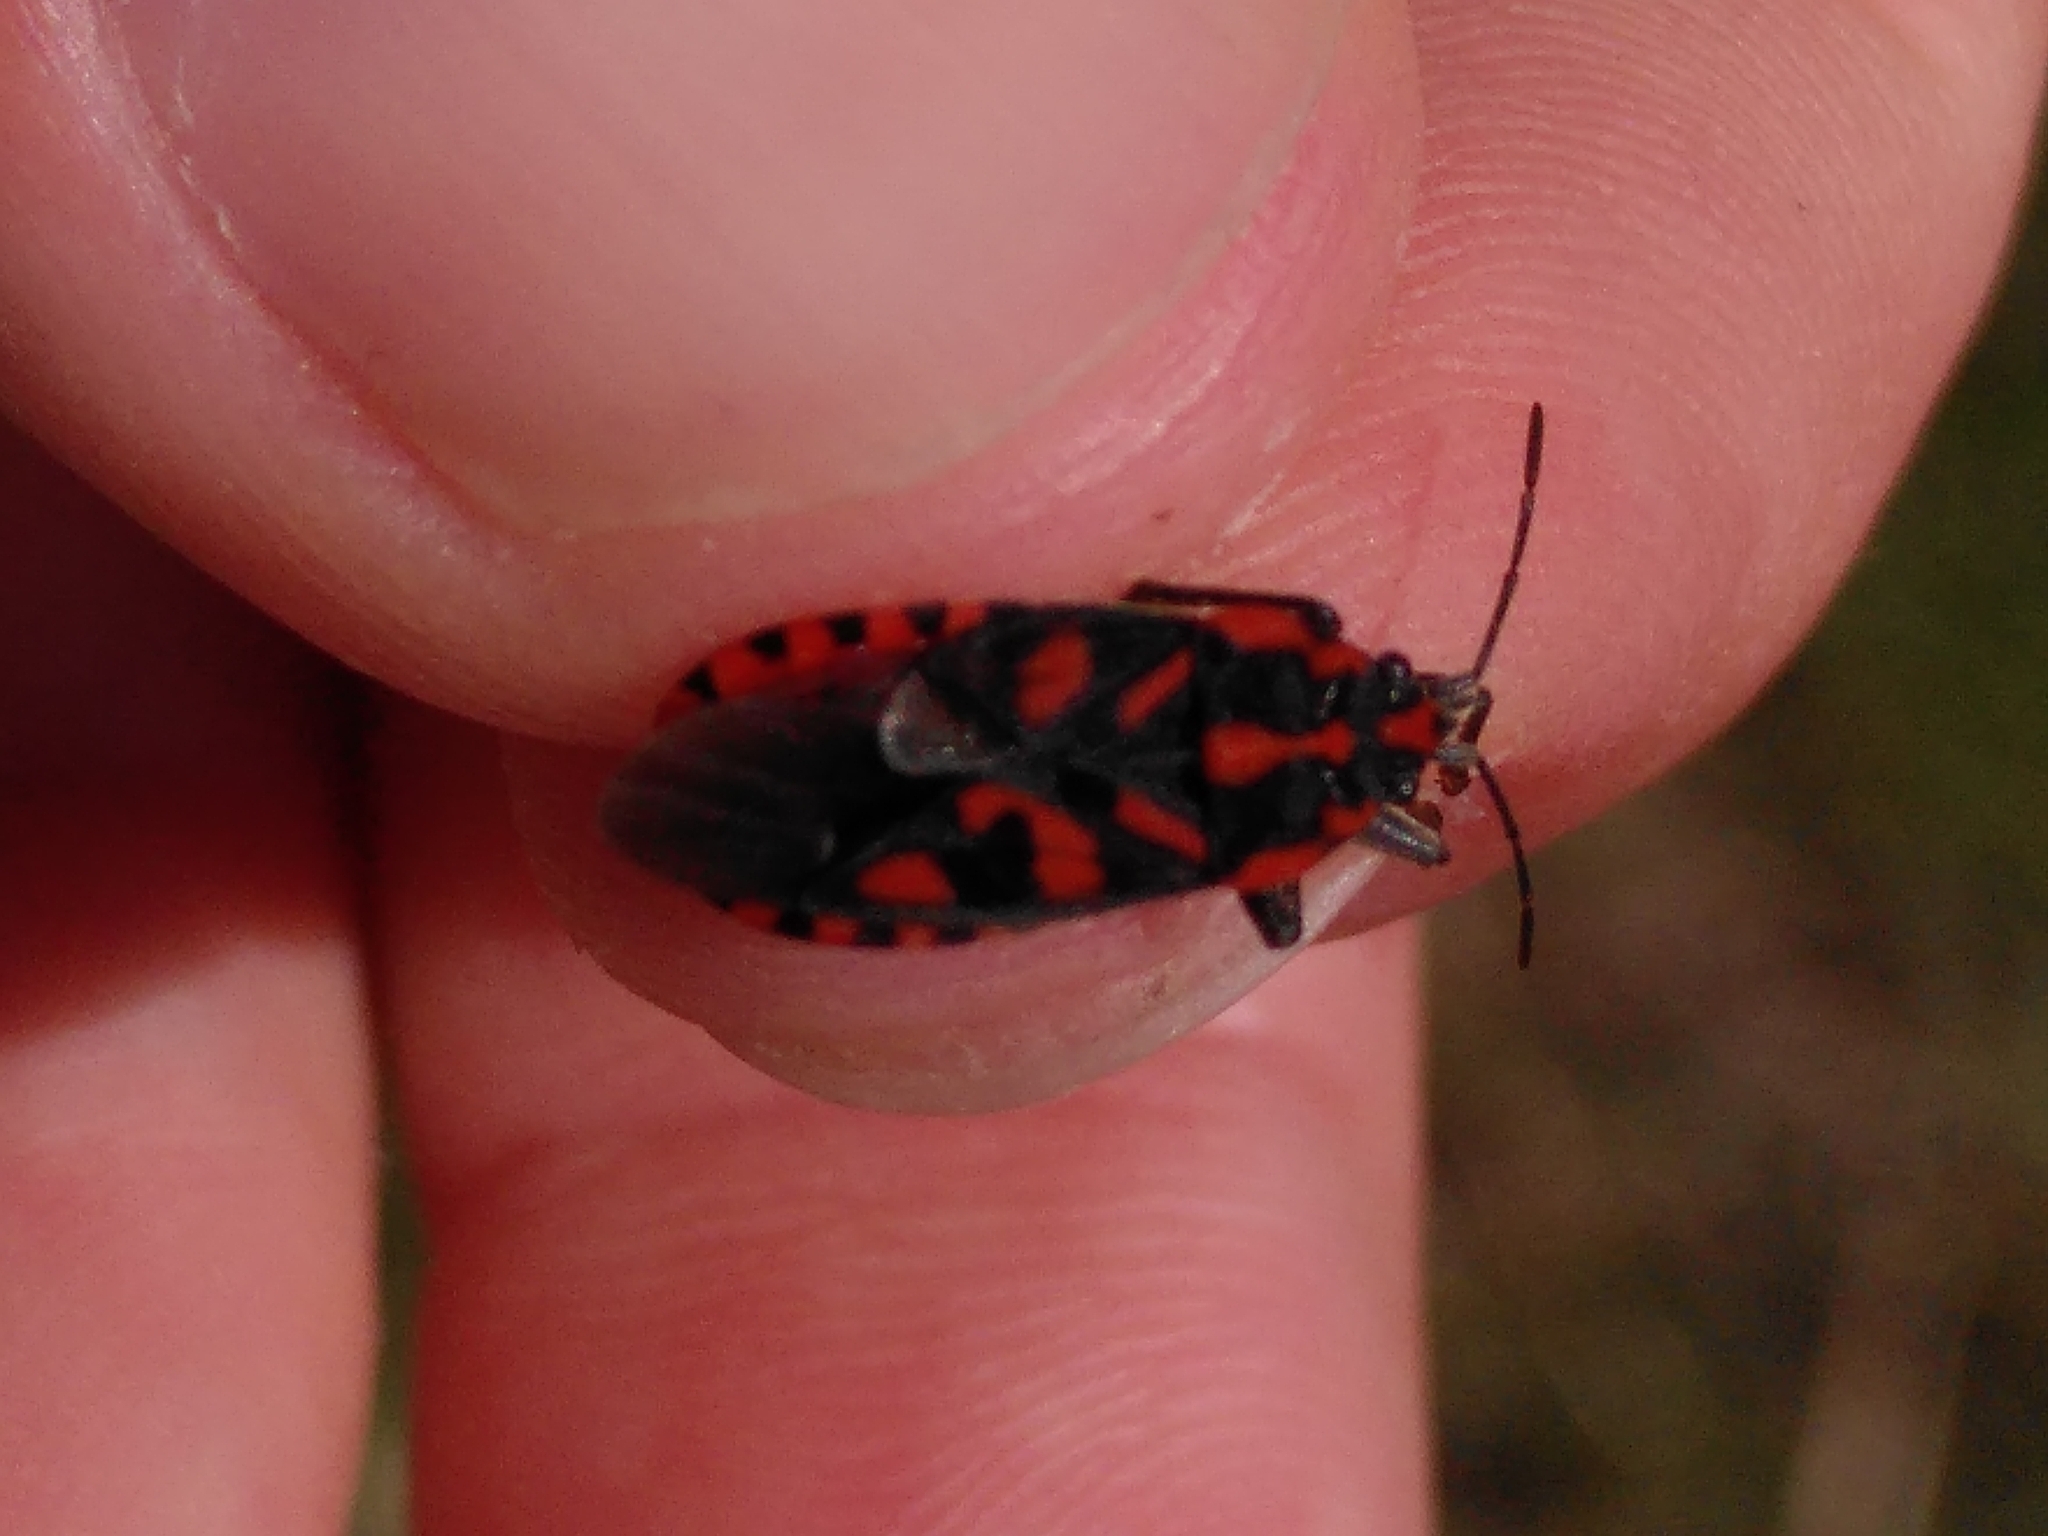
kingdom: Animalia
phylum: Arthropoda
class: Insecta
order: Hemiptera
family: Lygaeidae
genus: Spilostethus
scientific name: Spilostethus saxatilis
